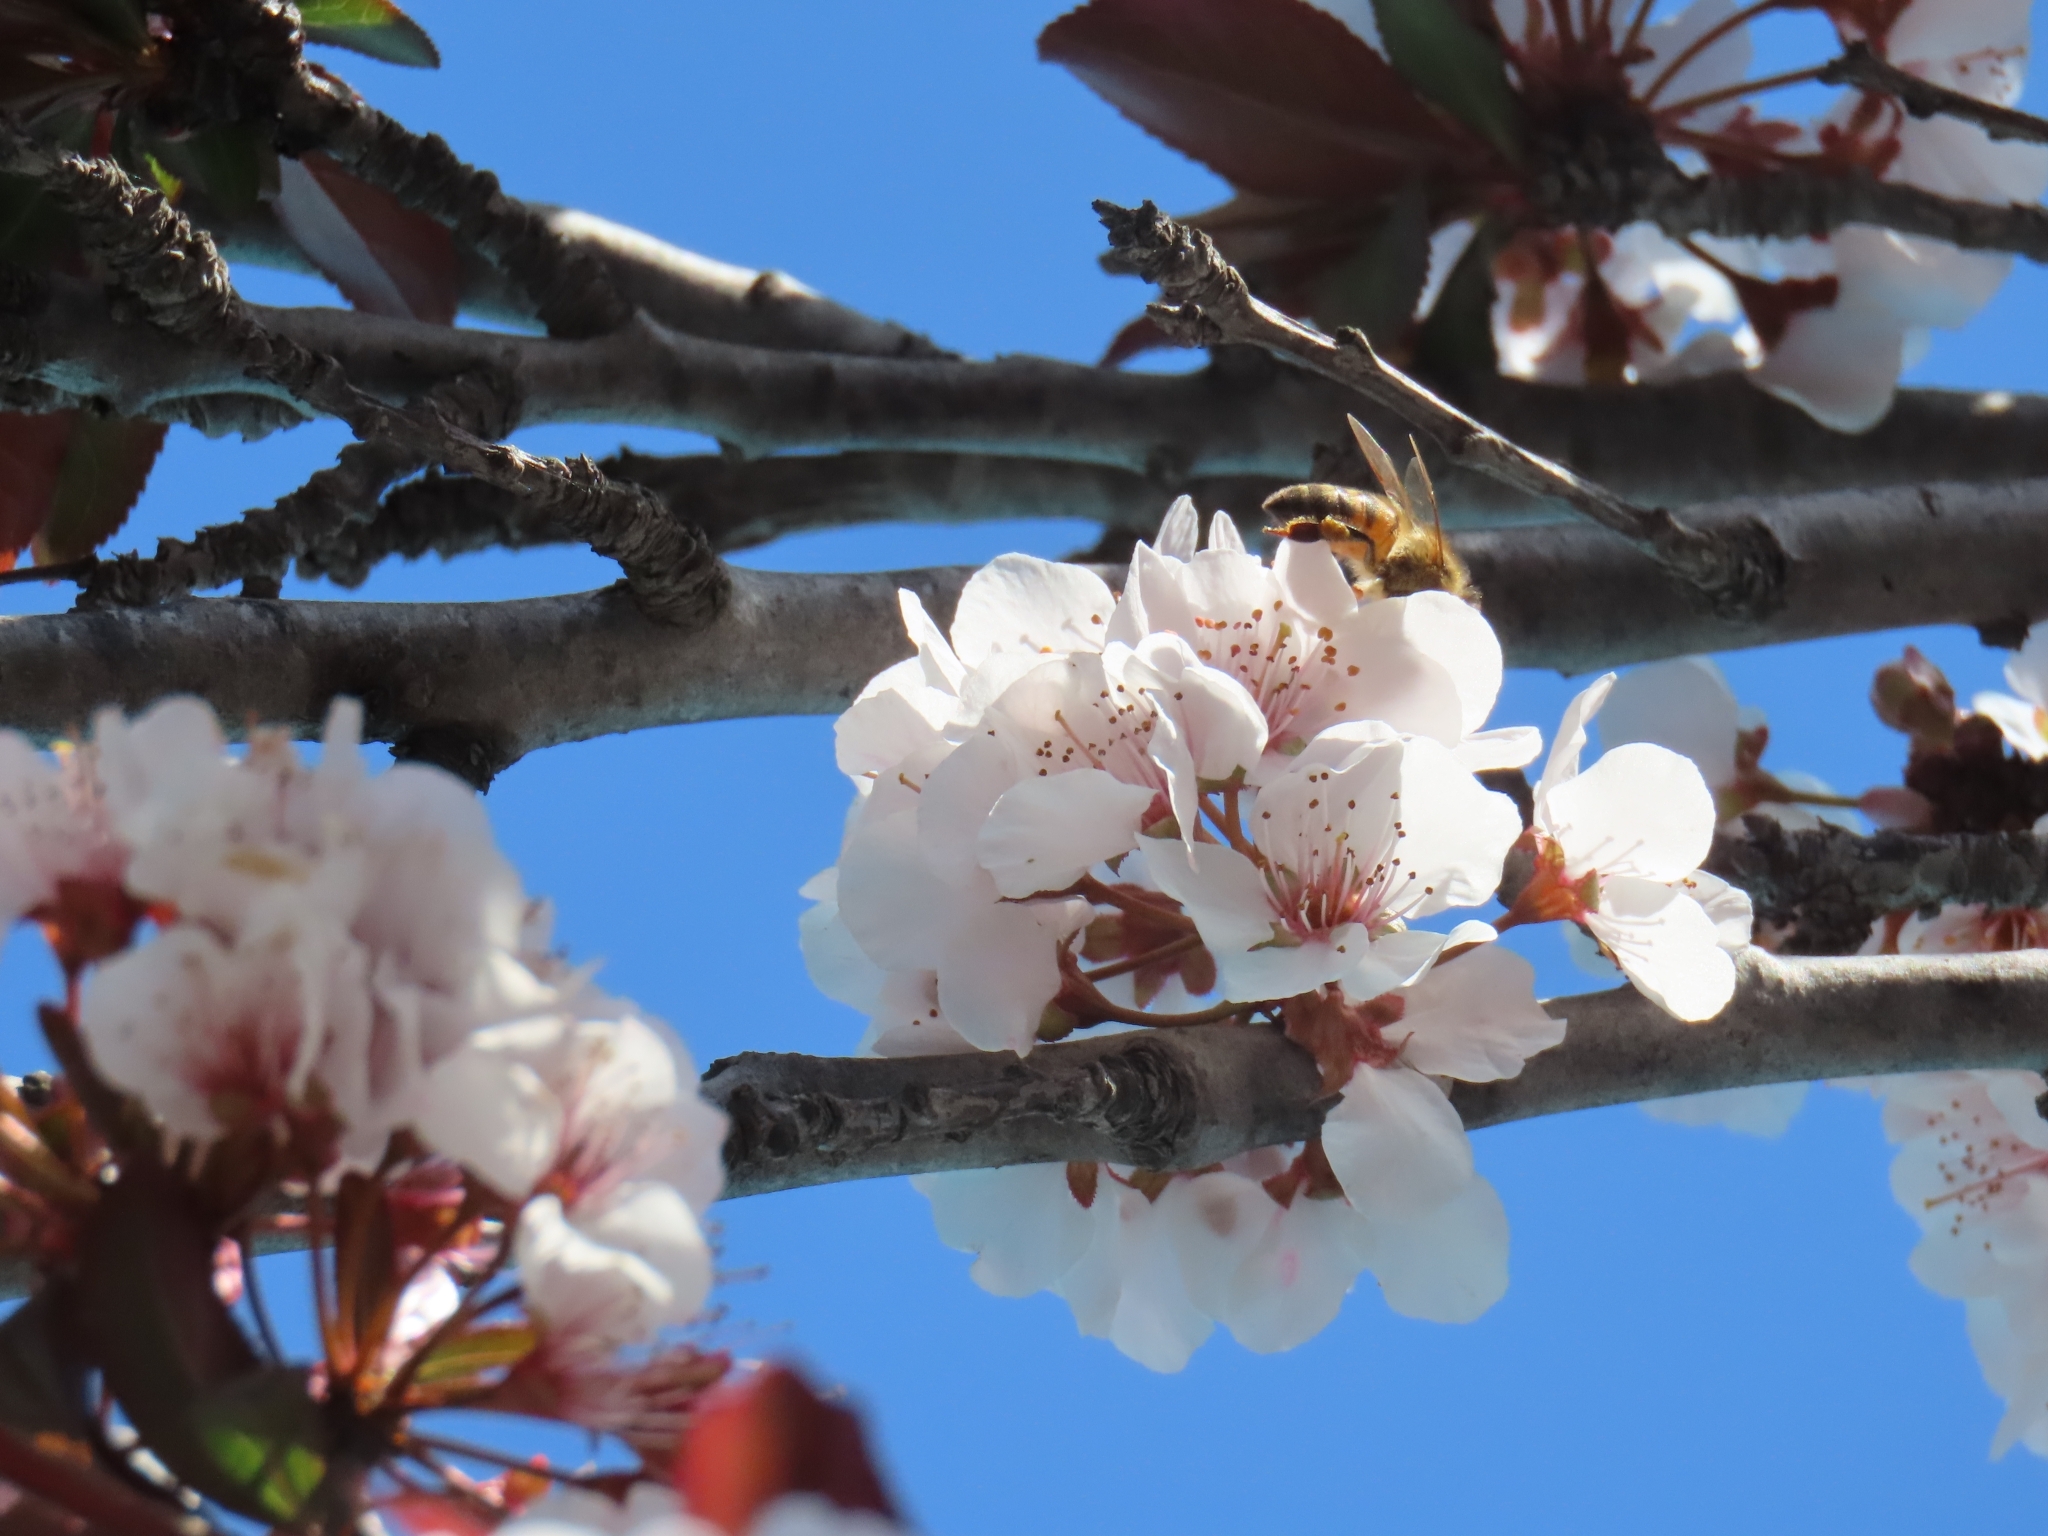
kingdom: Animalia
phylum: Arthropoda
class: Insecta
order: Hymenoptera
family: Apidae
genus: Apis
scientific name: Apis mellifera
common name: Honey bee
